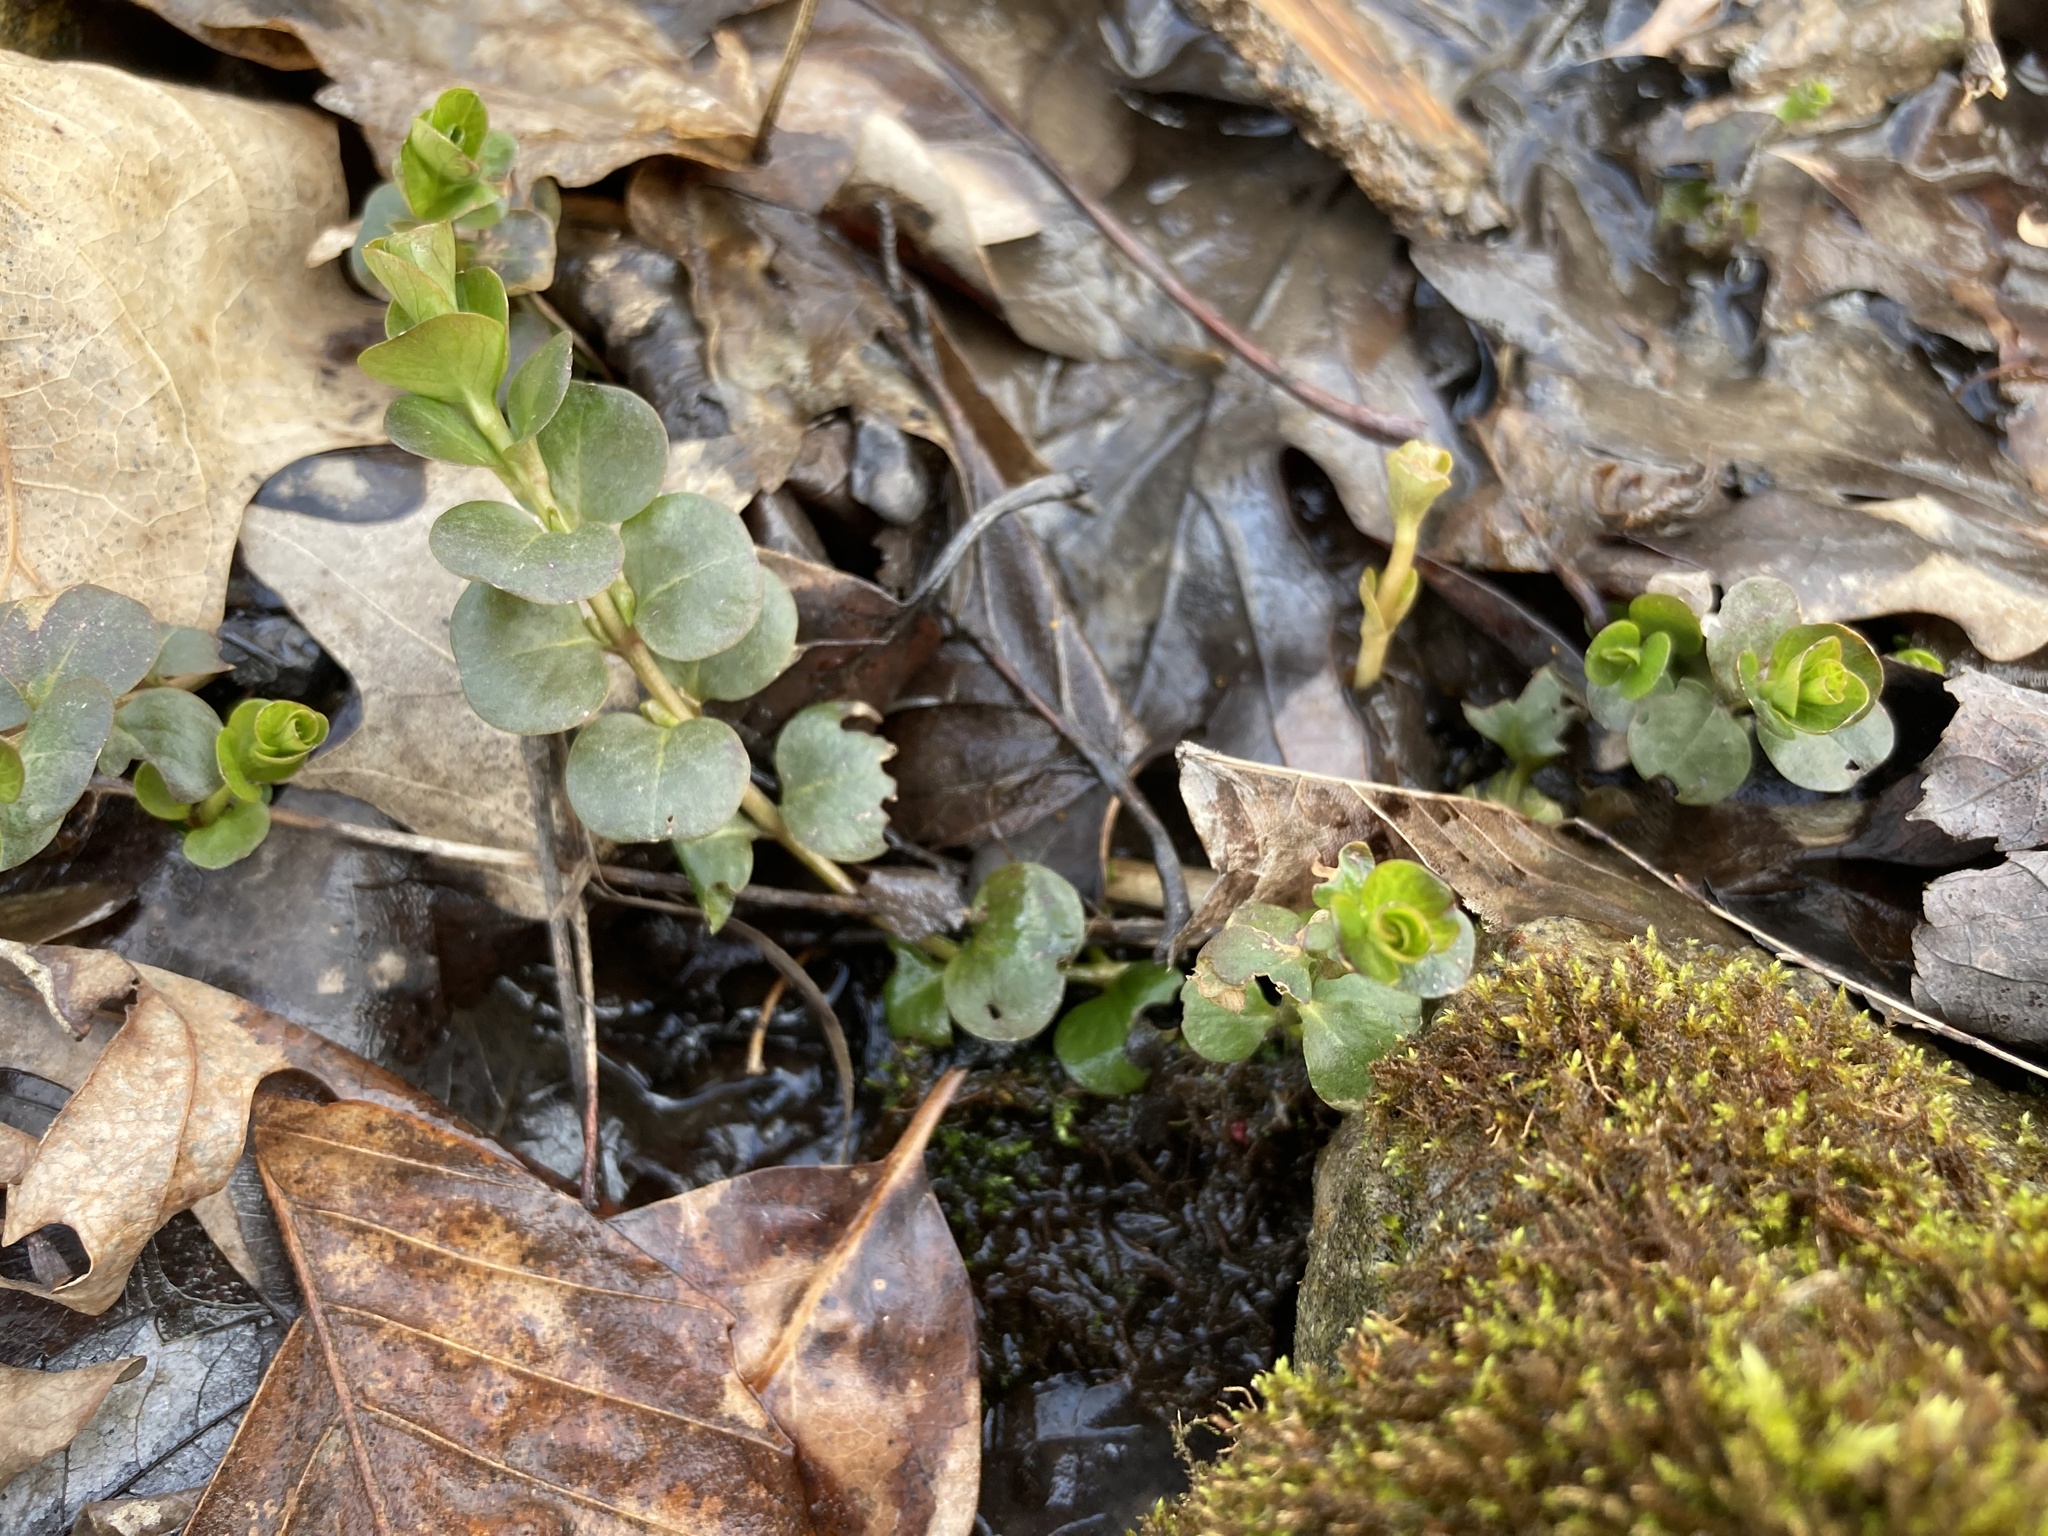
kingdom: Plantae
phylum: Tracheophyta
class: Magnoliopsida
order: Ericales
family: Primulaceae
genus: Lysimachia
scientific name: Lysimachia nummularia
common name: Moneywort
